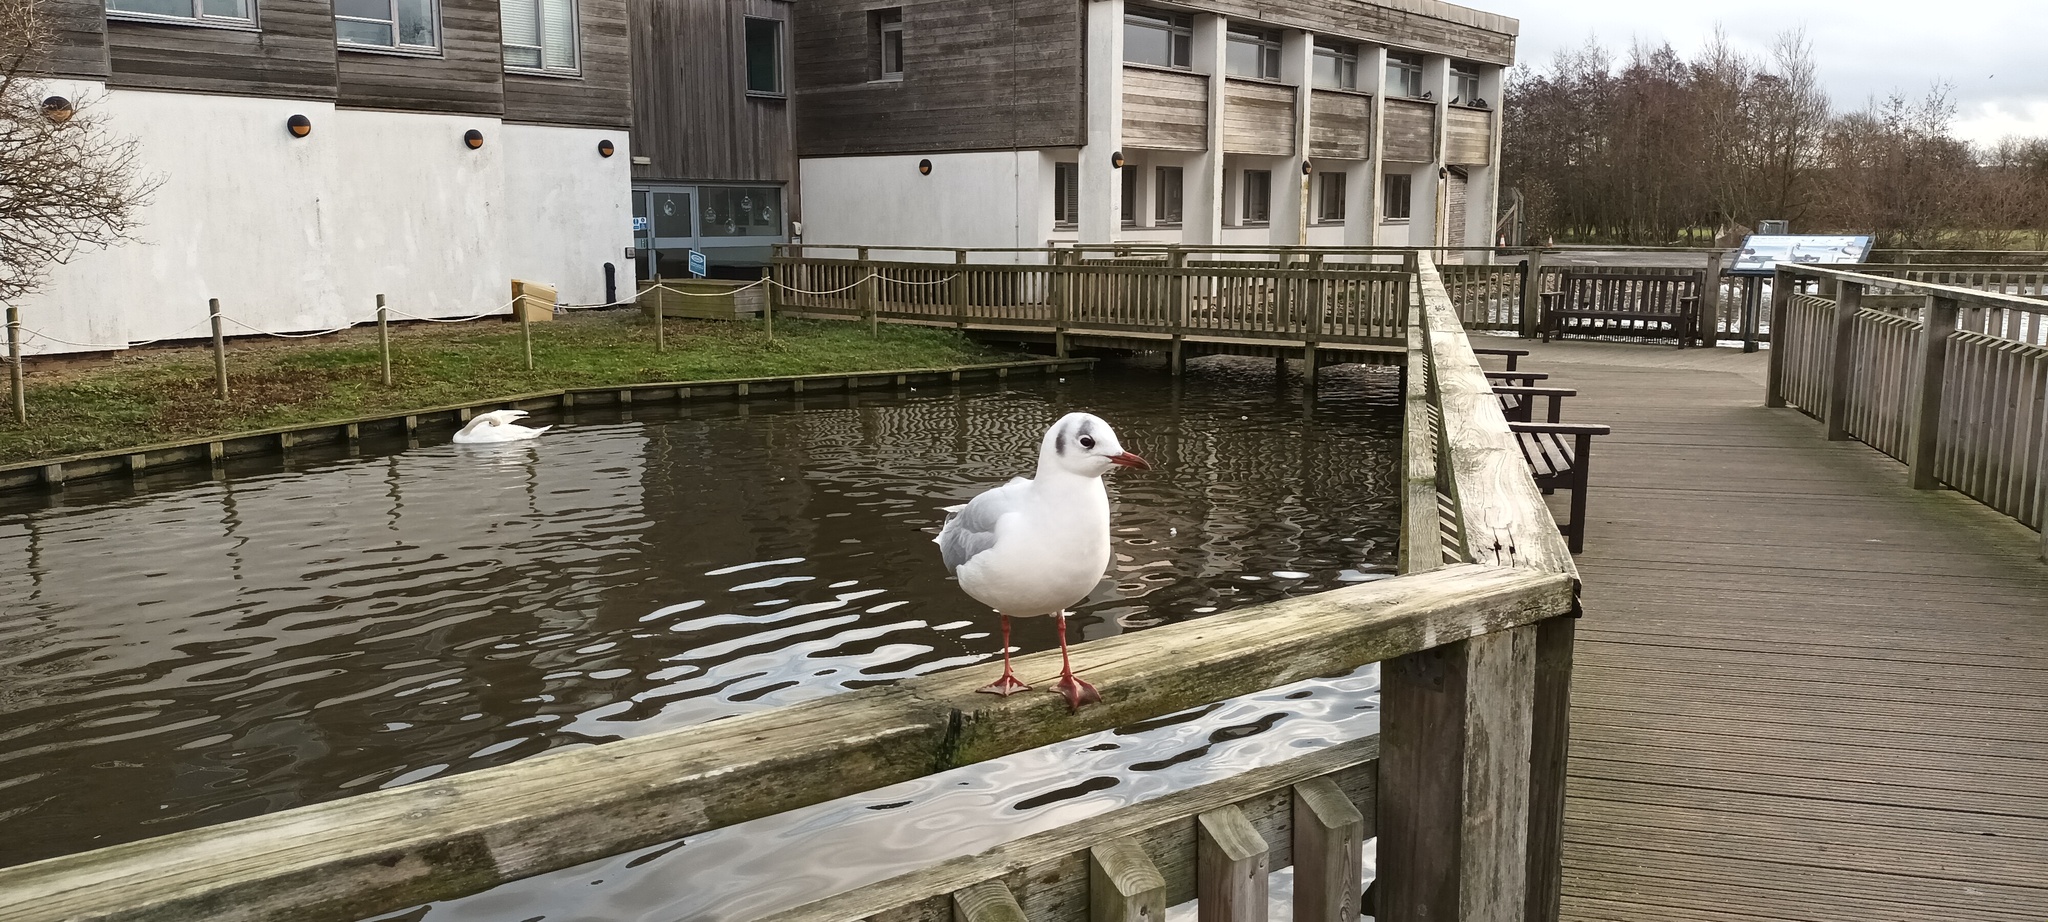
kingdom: Animalia
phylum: Chordata
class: Aves
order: Charadriiformes
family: Laridae
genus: Chroicocephalus
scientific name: Chroicocephalus ridibundus
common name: Black-headed gull
